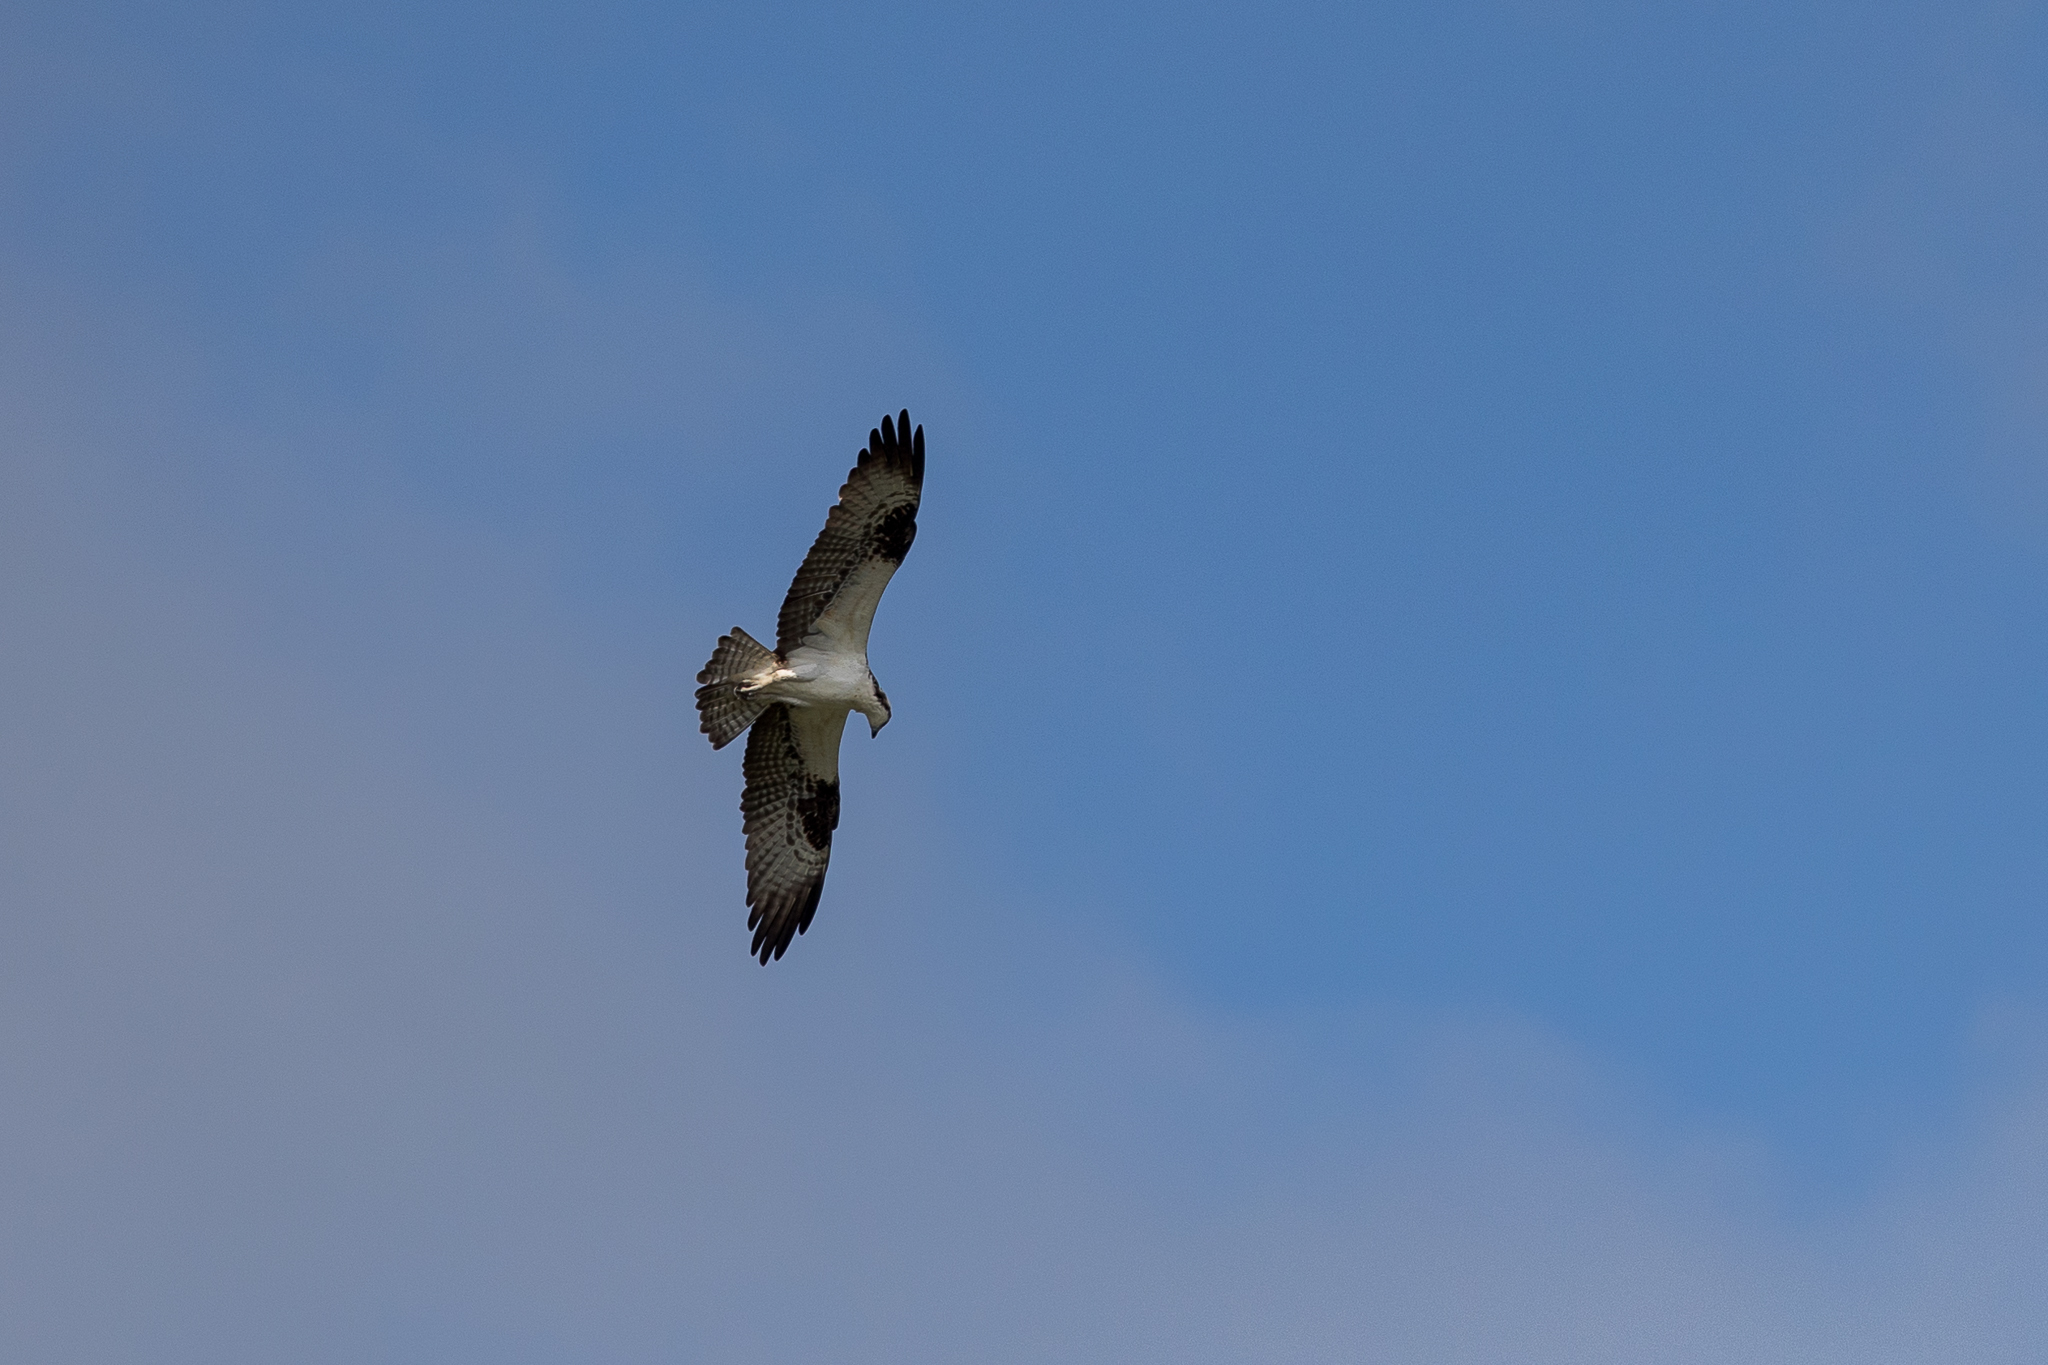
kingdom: Animalia
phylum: Chordata
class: Aves
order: Accipitriformes
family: Pandionidae
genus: Pandion
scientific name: Pandion haliaetus
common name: Osprey
